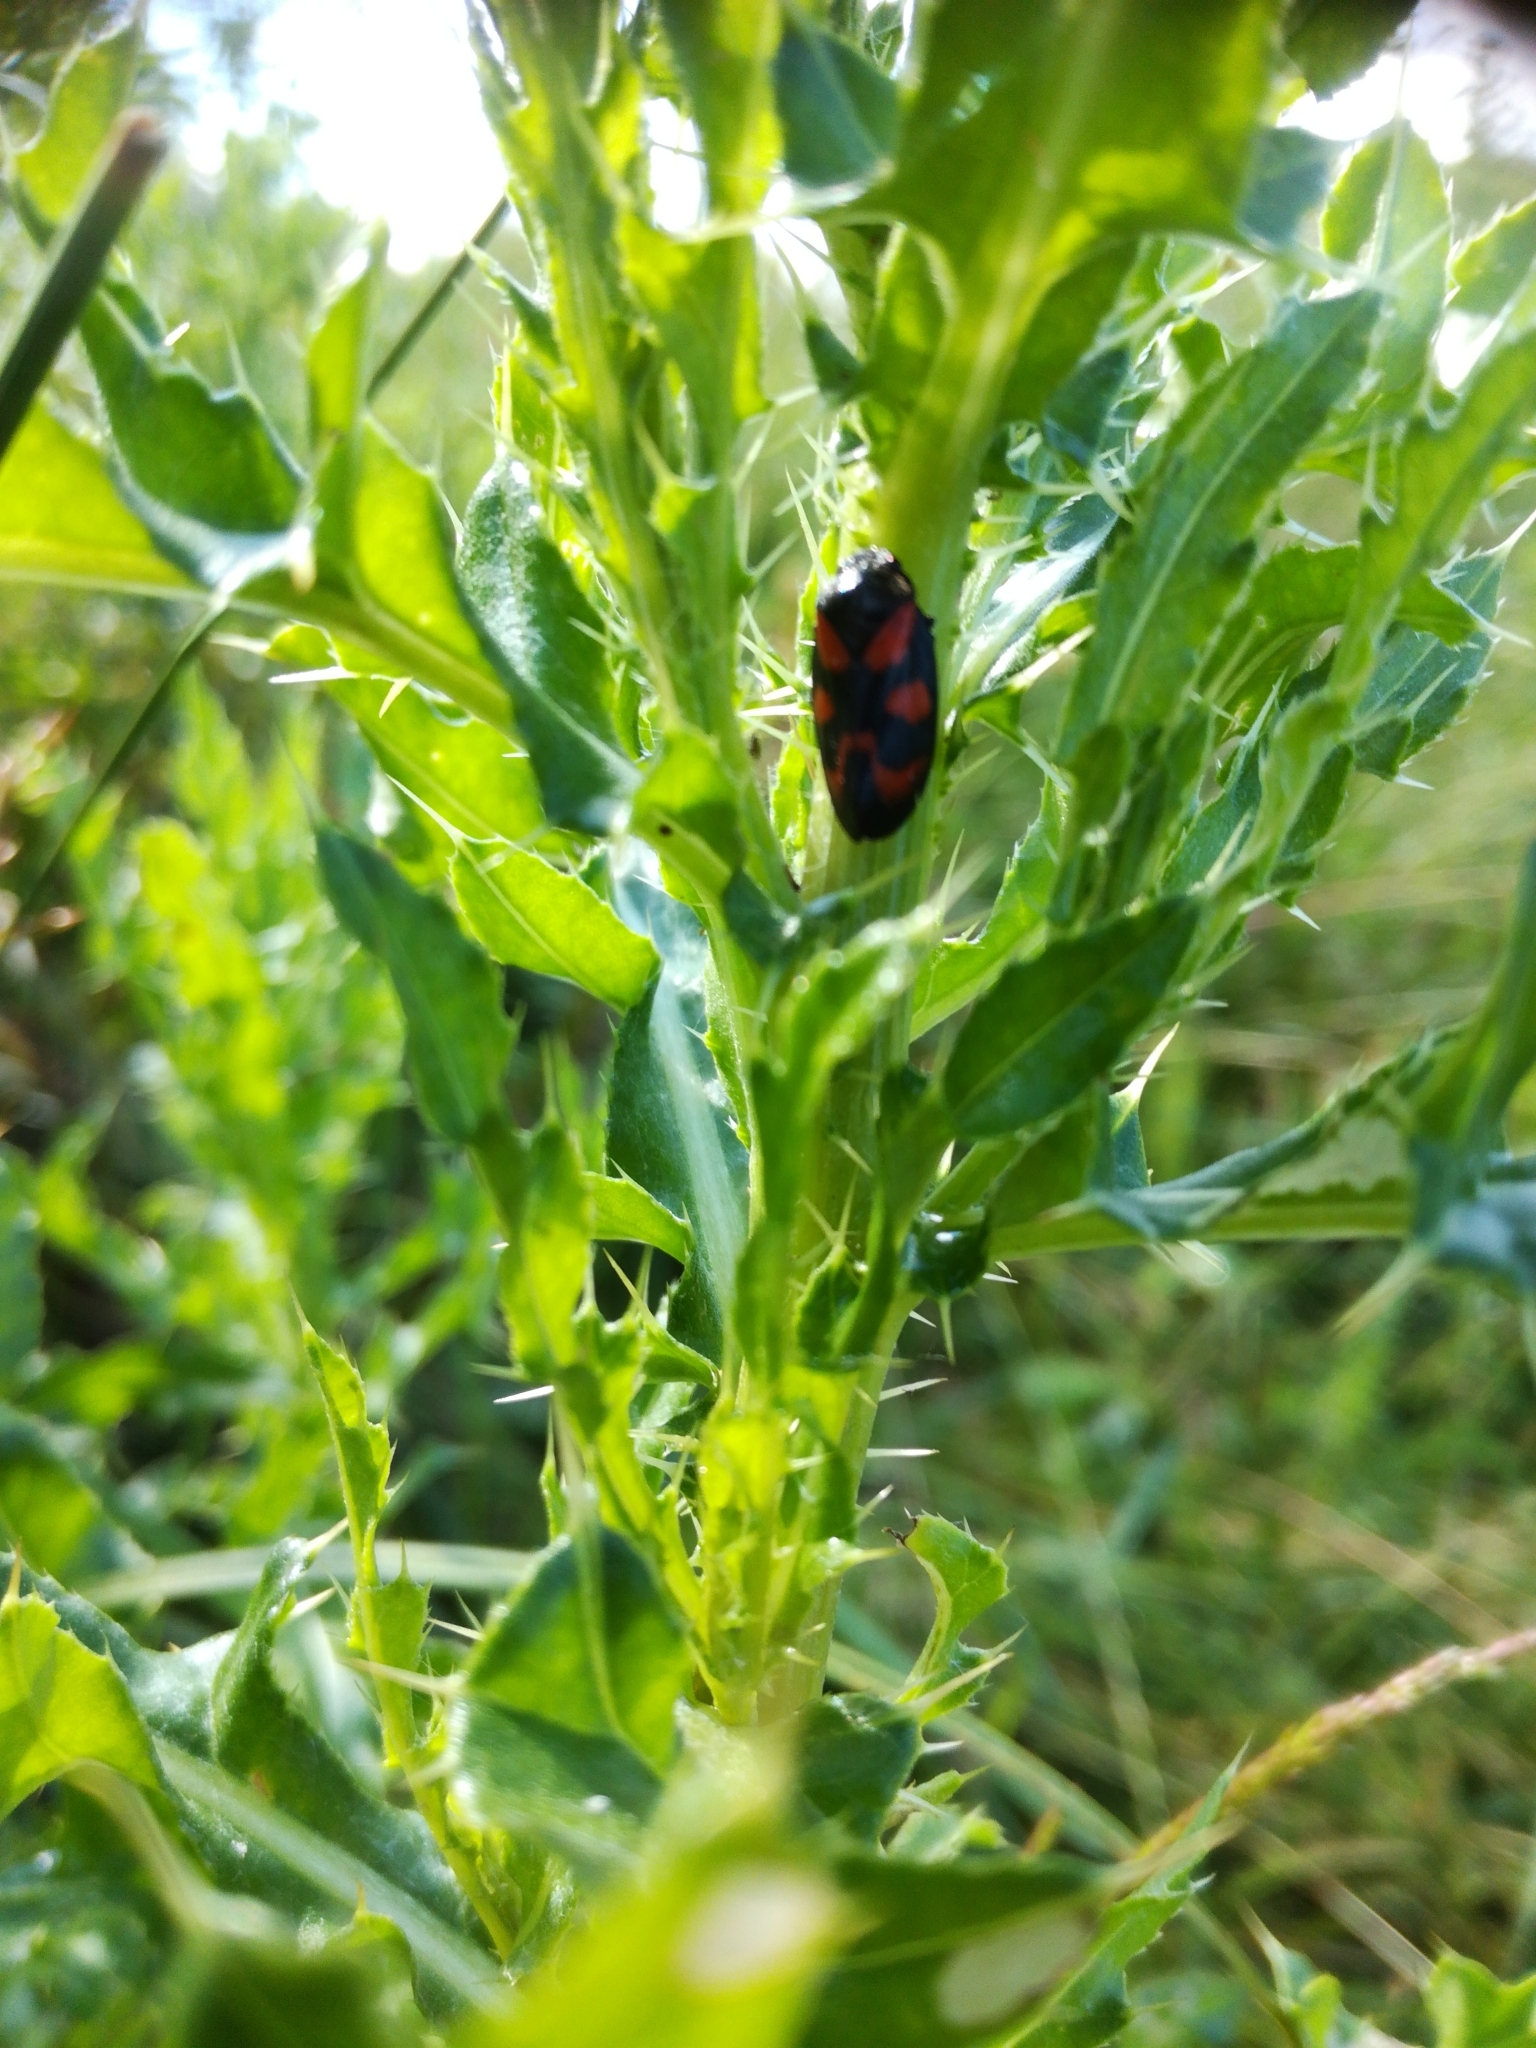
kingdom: Animalia
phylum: Arthropoda
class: Insecta
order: Hemiptera
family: Cercopidae
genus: Cercopis
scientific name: Cercopis vulnerata
